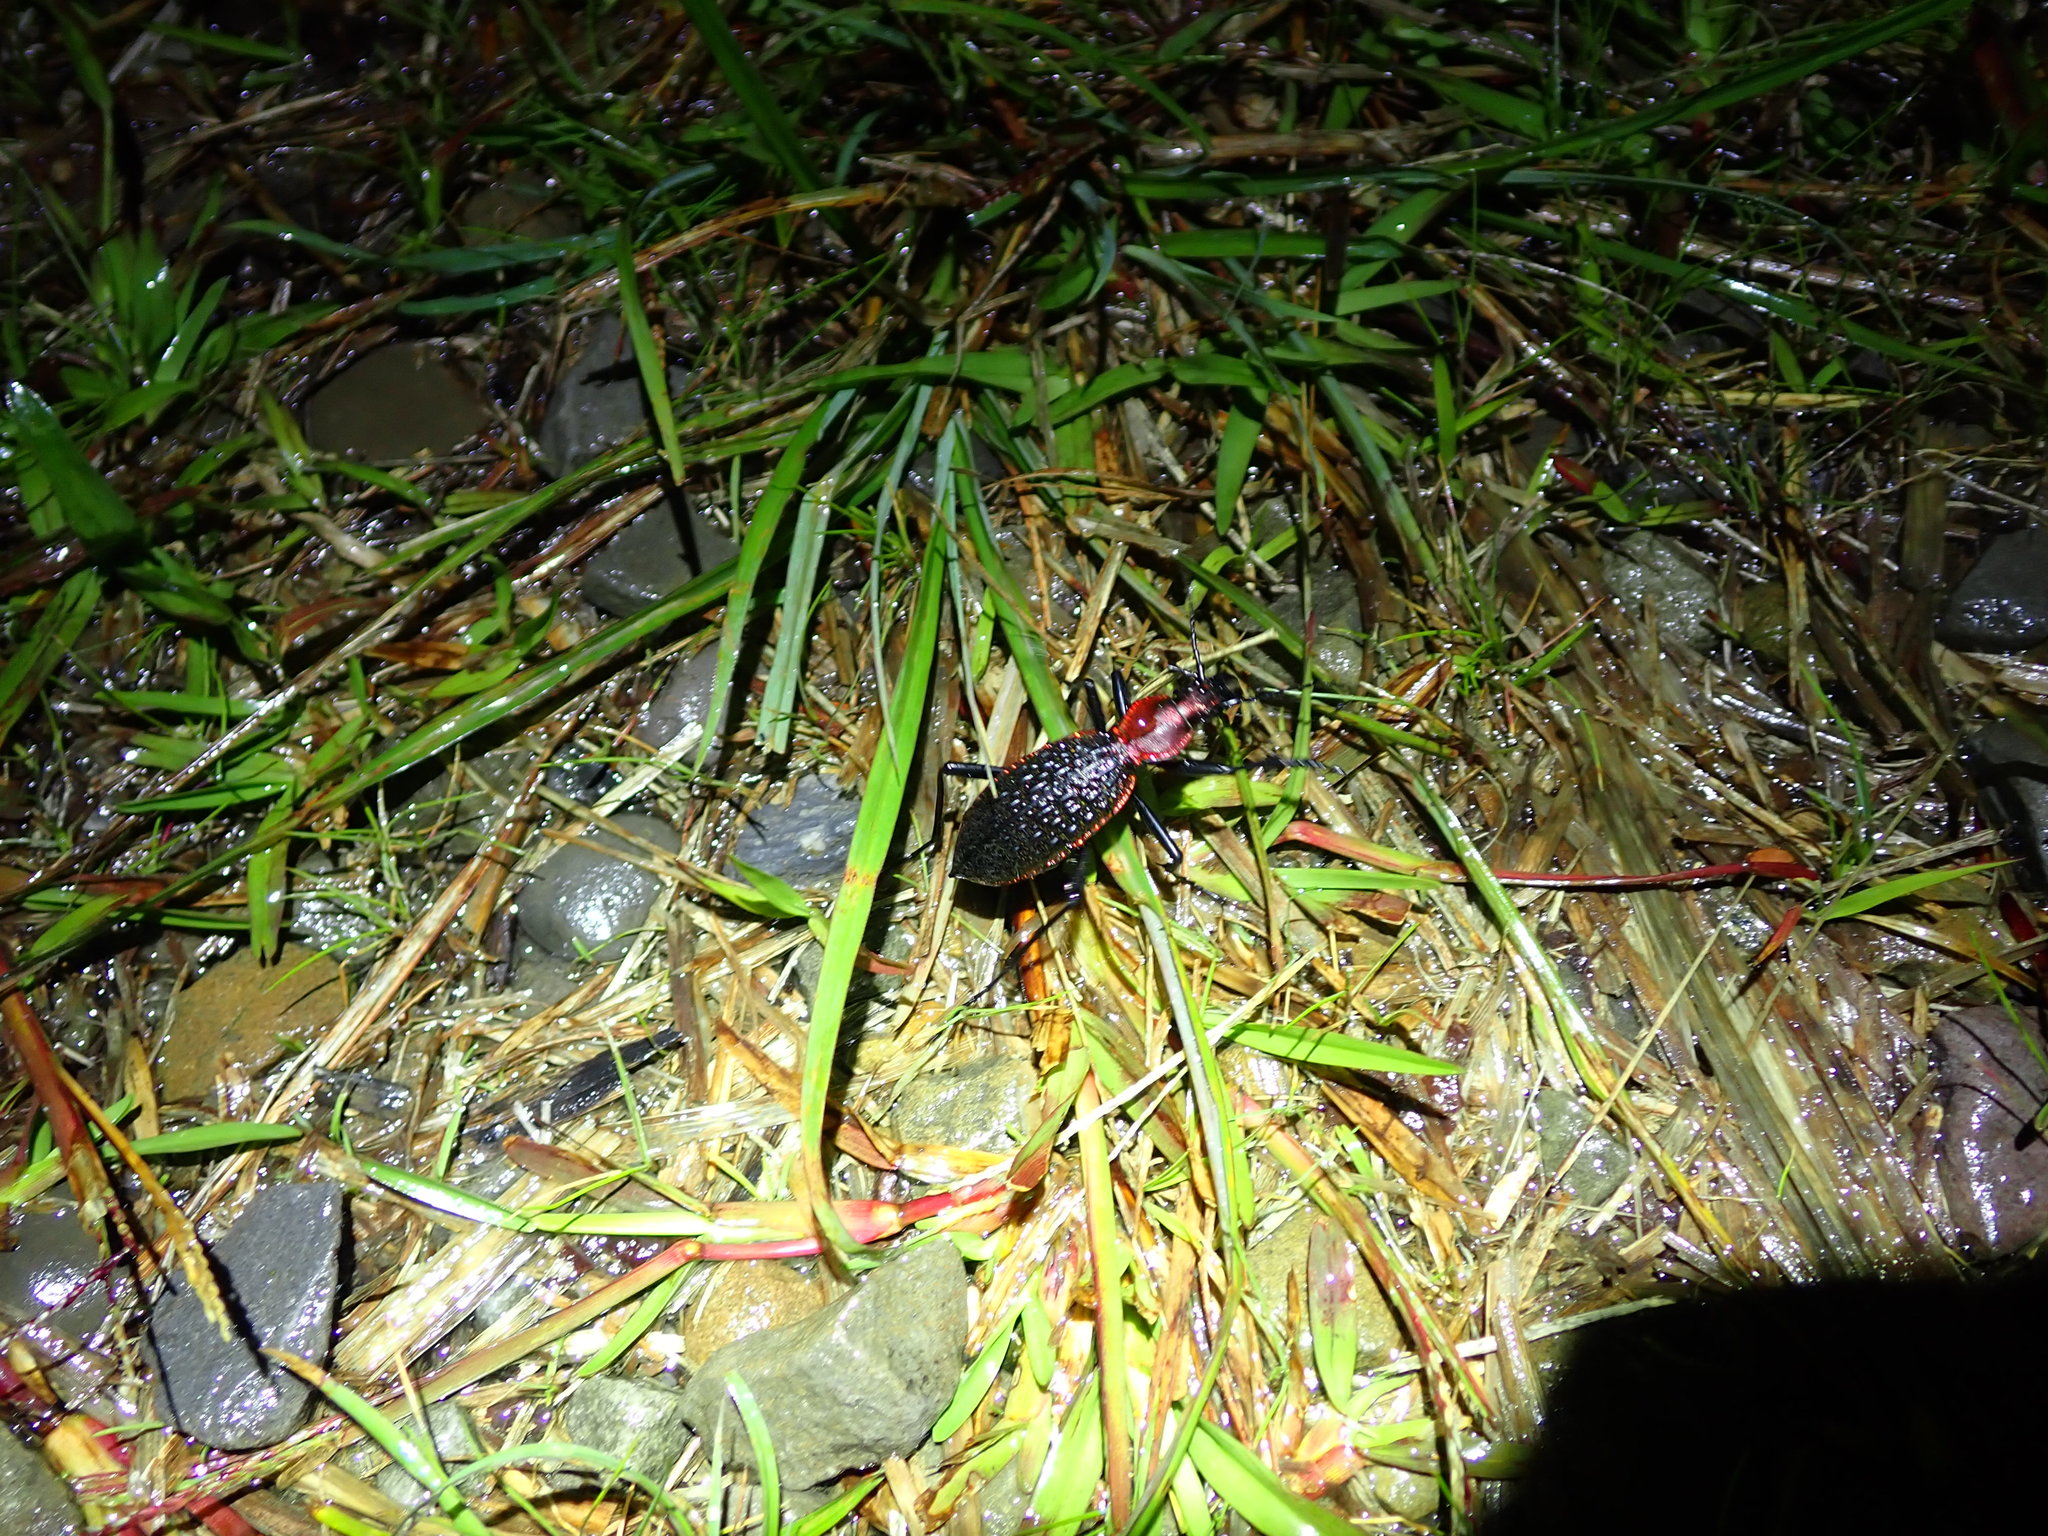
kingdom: Animalia
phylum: Arthropoda
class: Insecta
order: Coleoptera
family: Carabidae
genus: Carabus
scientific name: Carabus nankotaizanus
